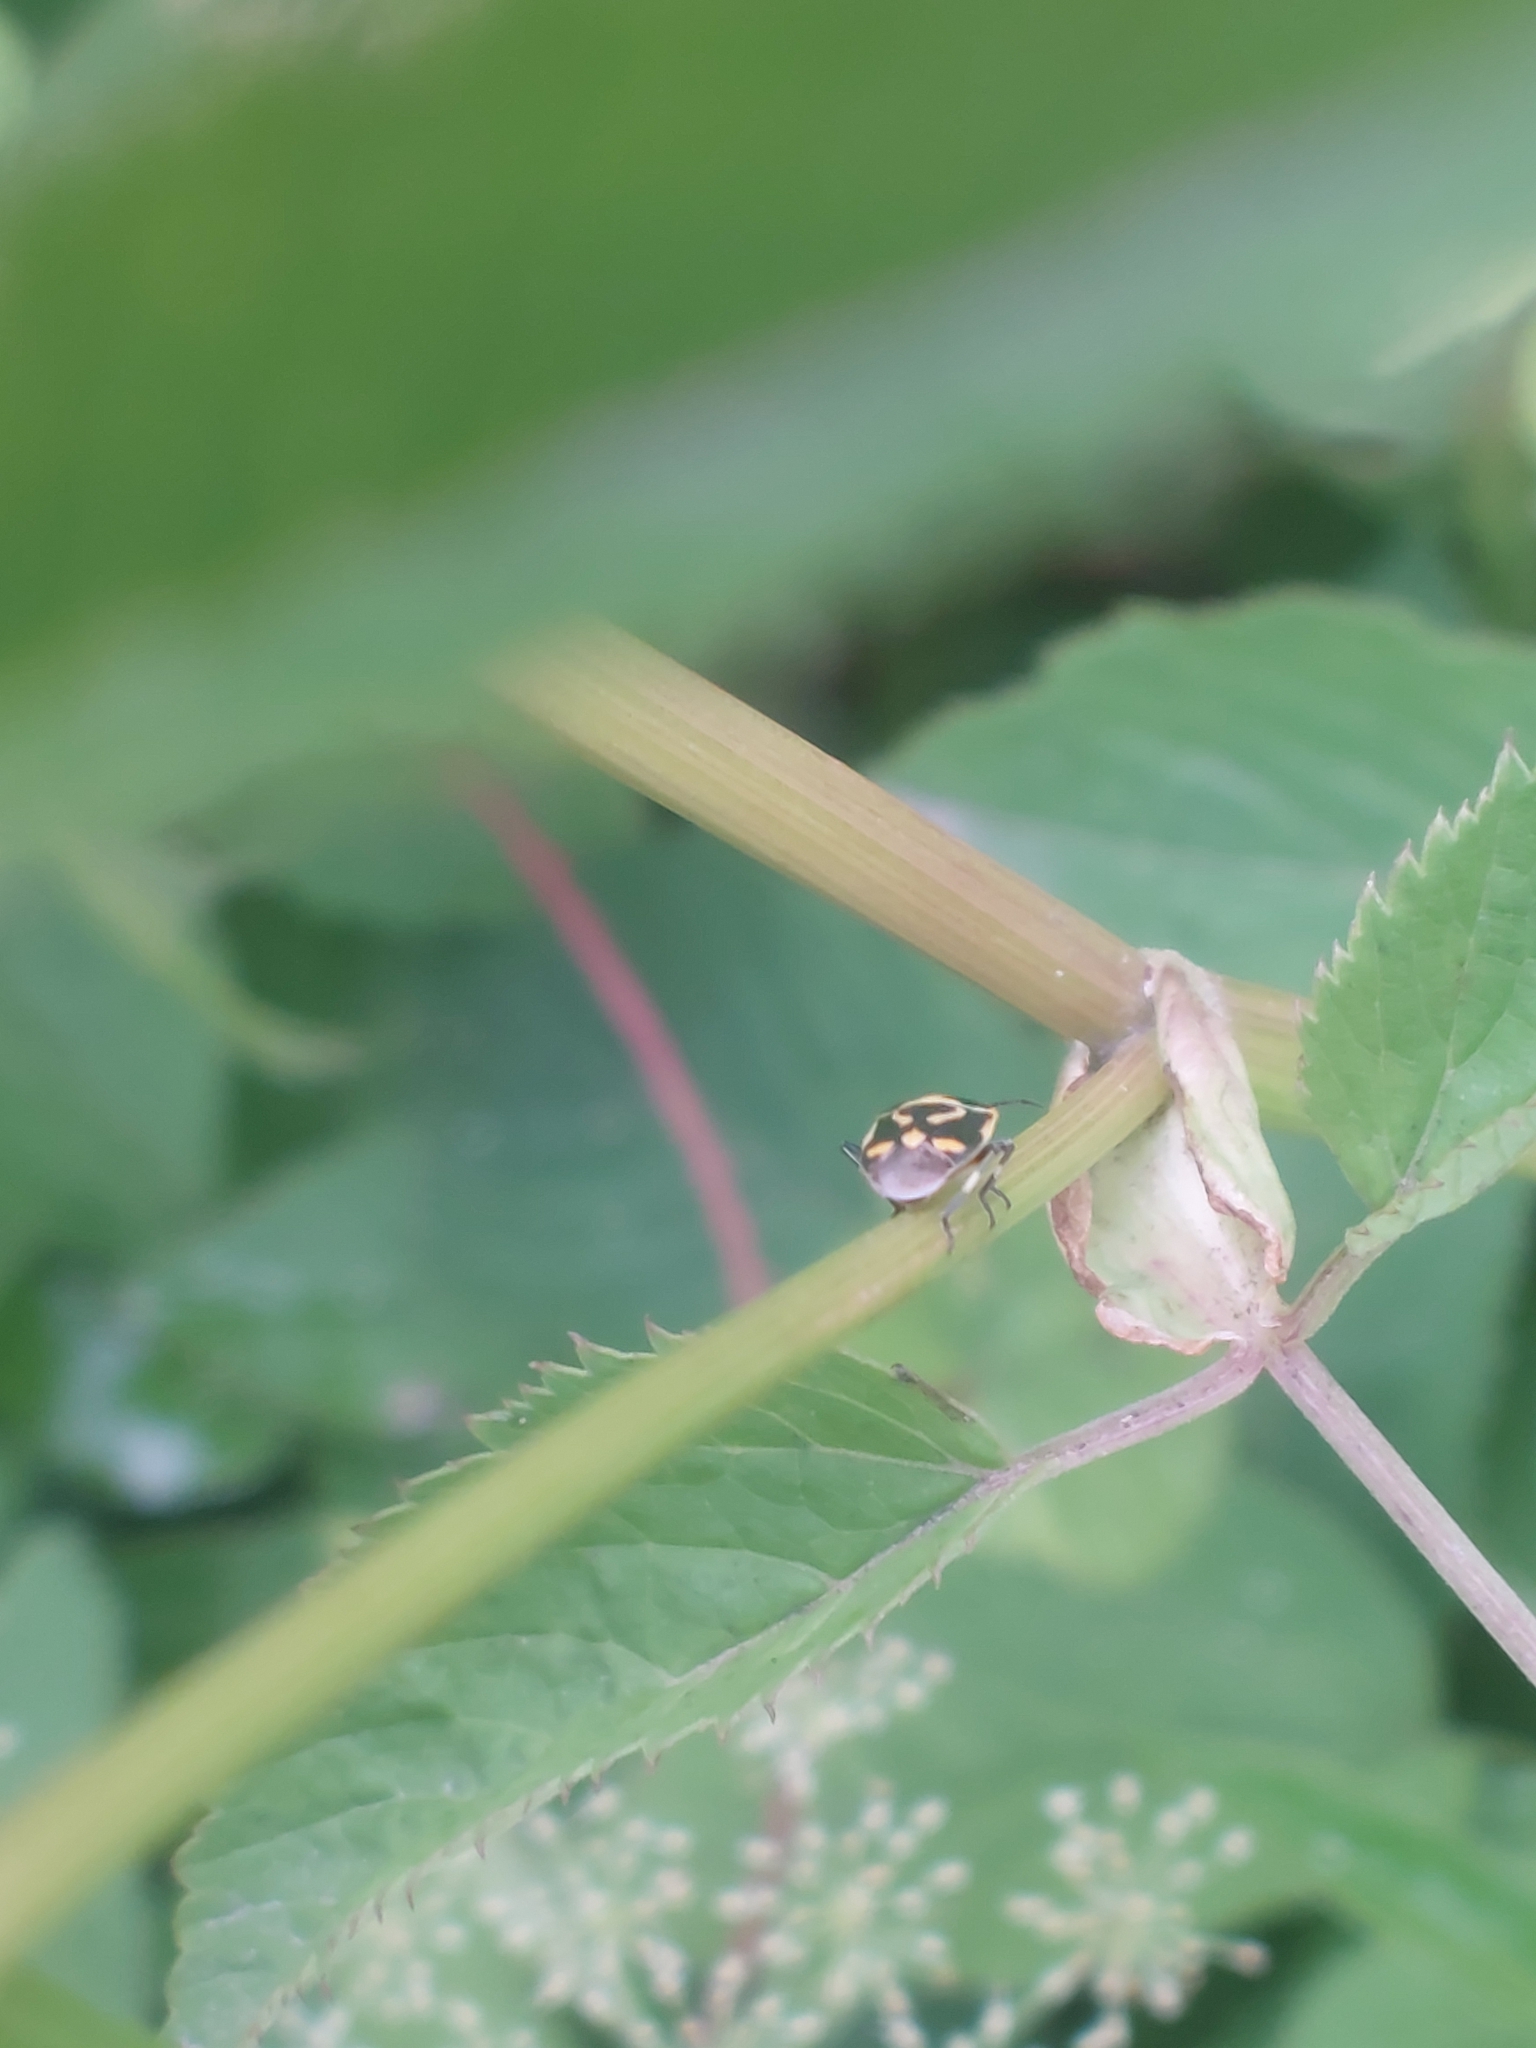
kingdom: Animalia
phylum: Arthropoda
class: Insecta
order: Hemiptera
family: Pentatomidae
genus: Eurydema
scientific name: Eurydema oleracea
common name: Cabbage bug
